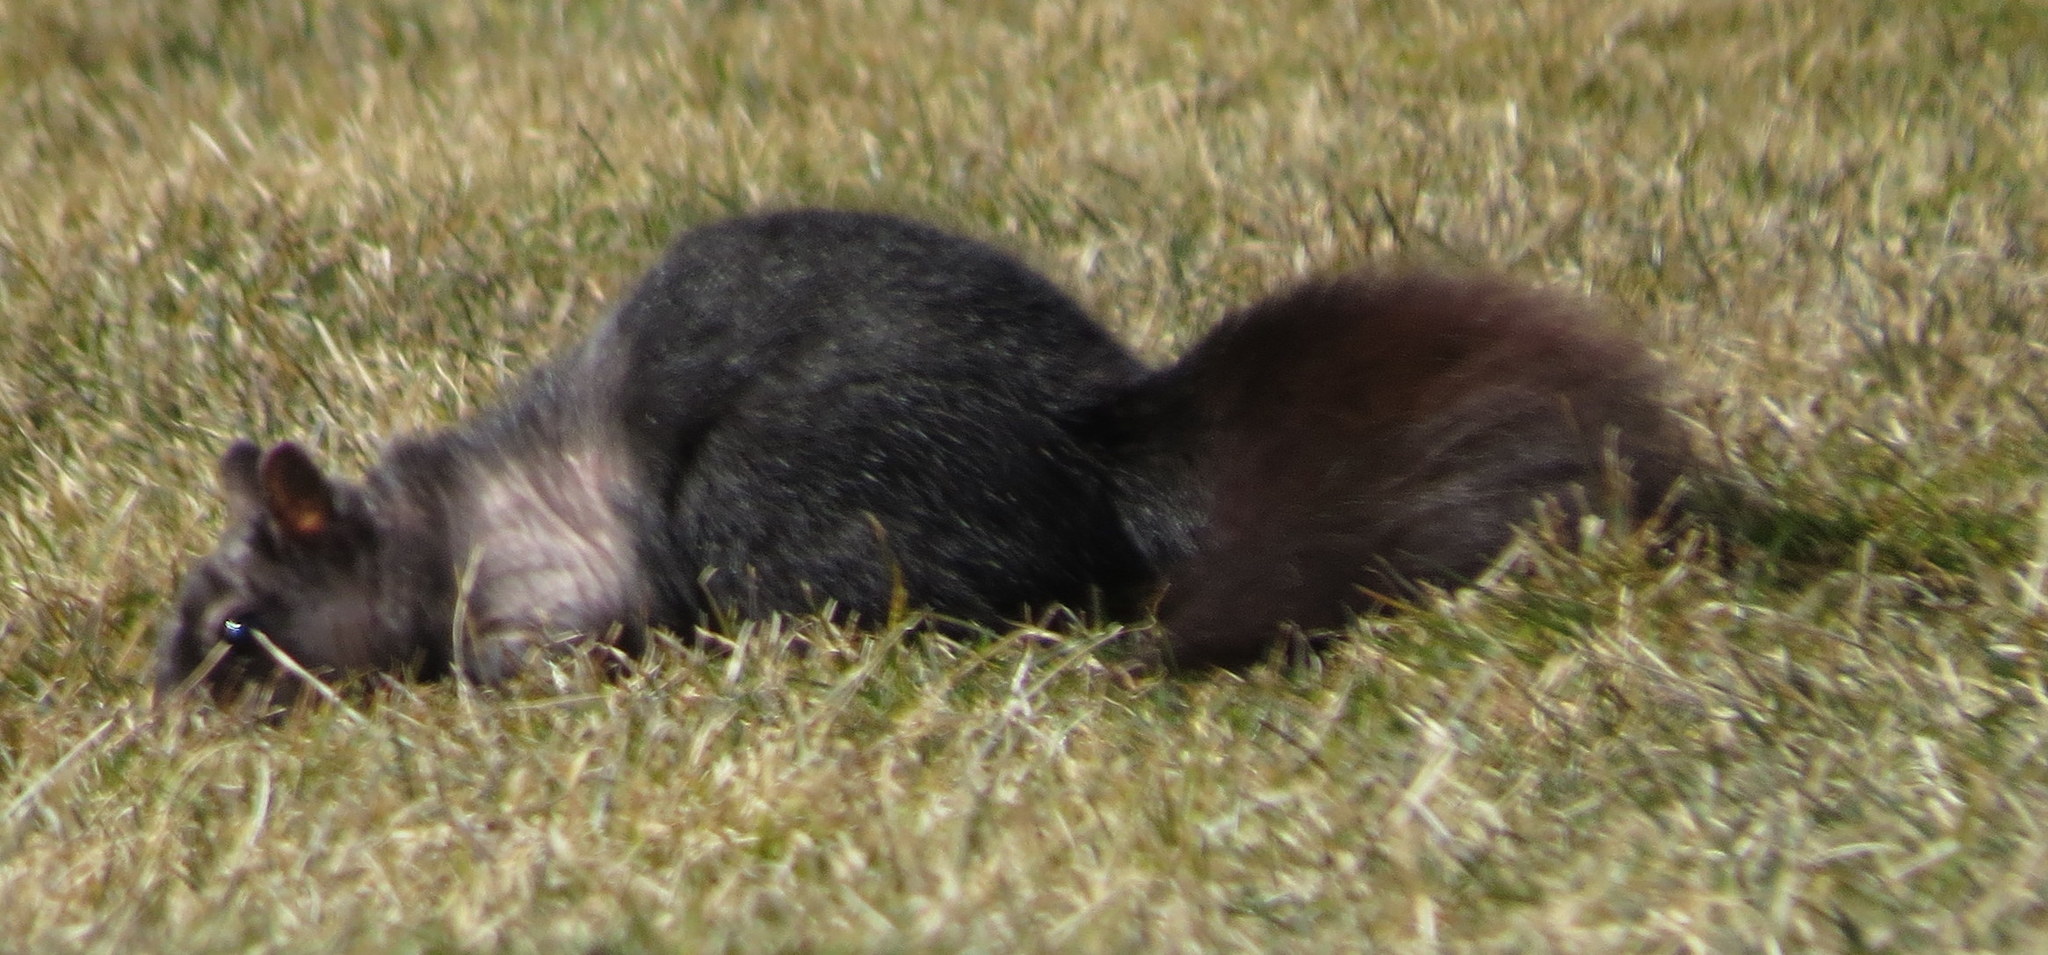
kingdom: Animalia
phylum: Chordata
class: Mammalia
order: Rodentia
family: Sciuridae
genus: Sciurus
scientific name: Sciurus carolinensis
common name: Eastern gray squirrel
